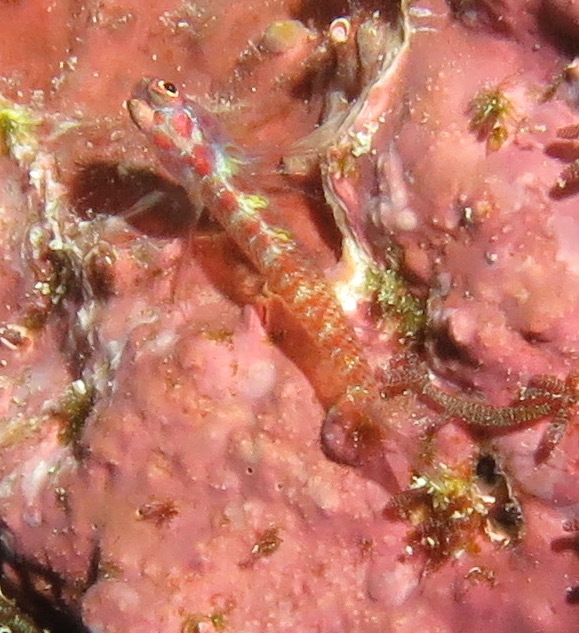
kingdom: Animalia
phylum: Chordata
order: Perciformes
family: Gobiidae
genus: Eviota
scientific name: Eviota teresae
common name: Terry's dwarfgoby
